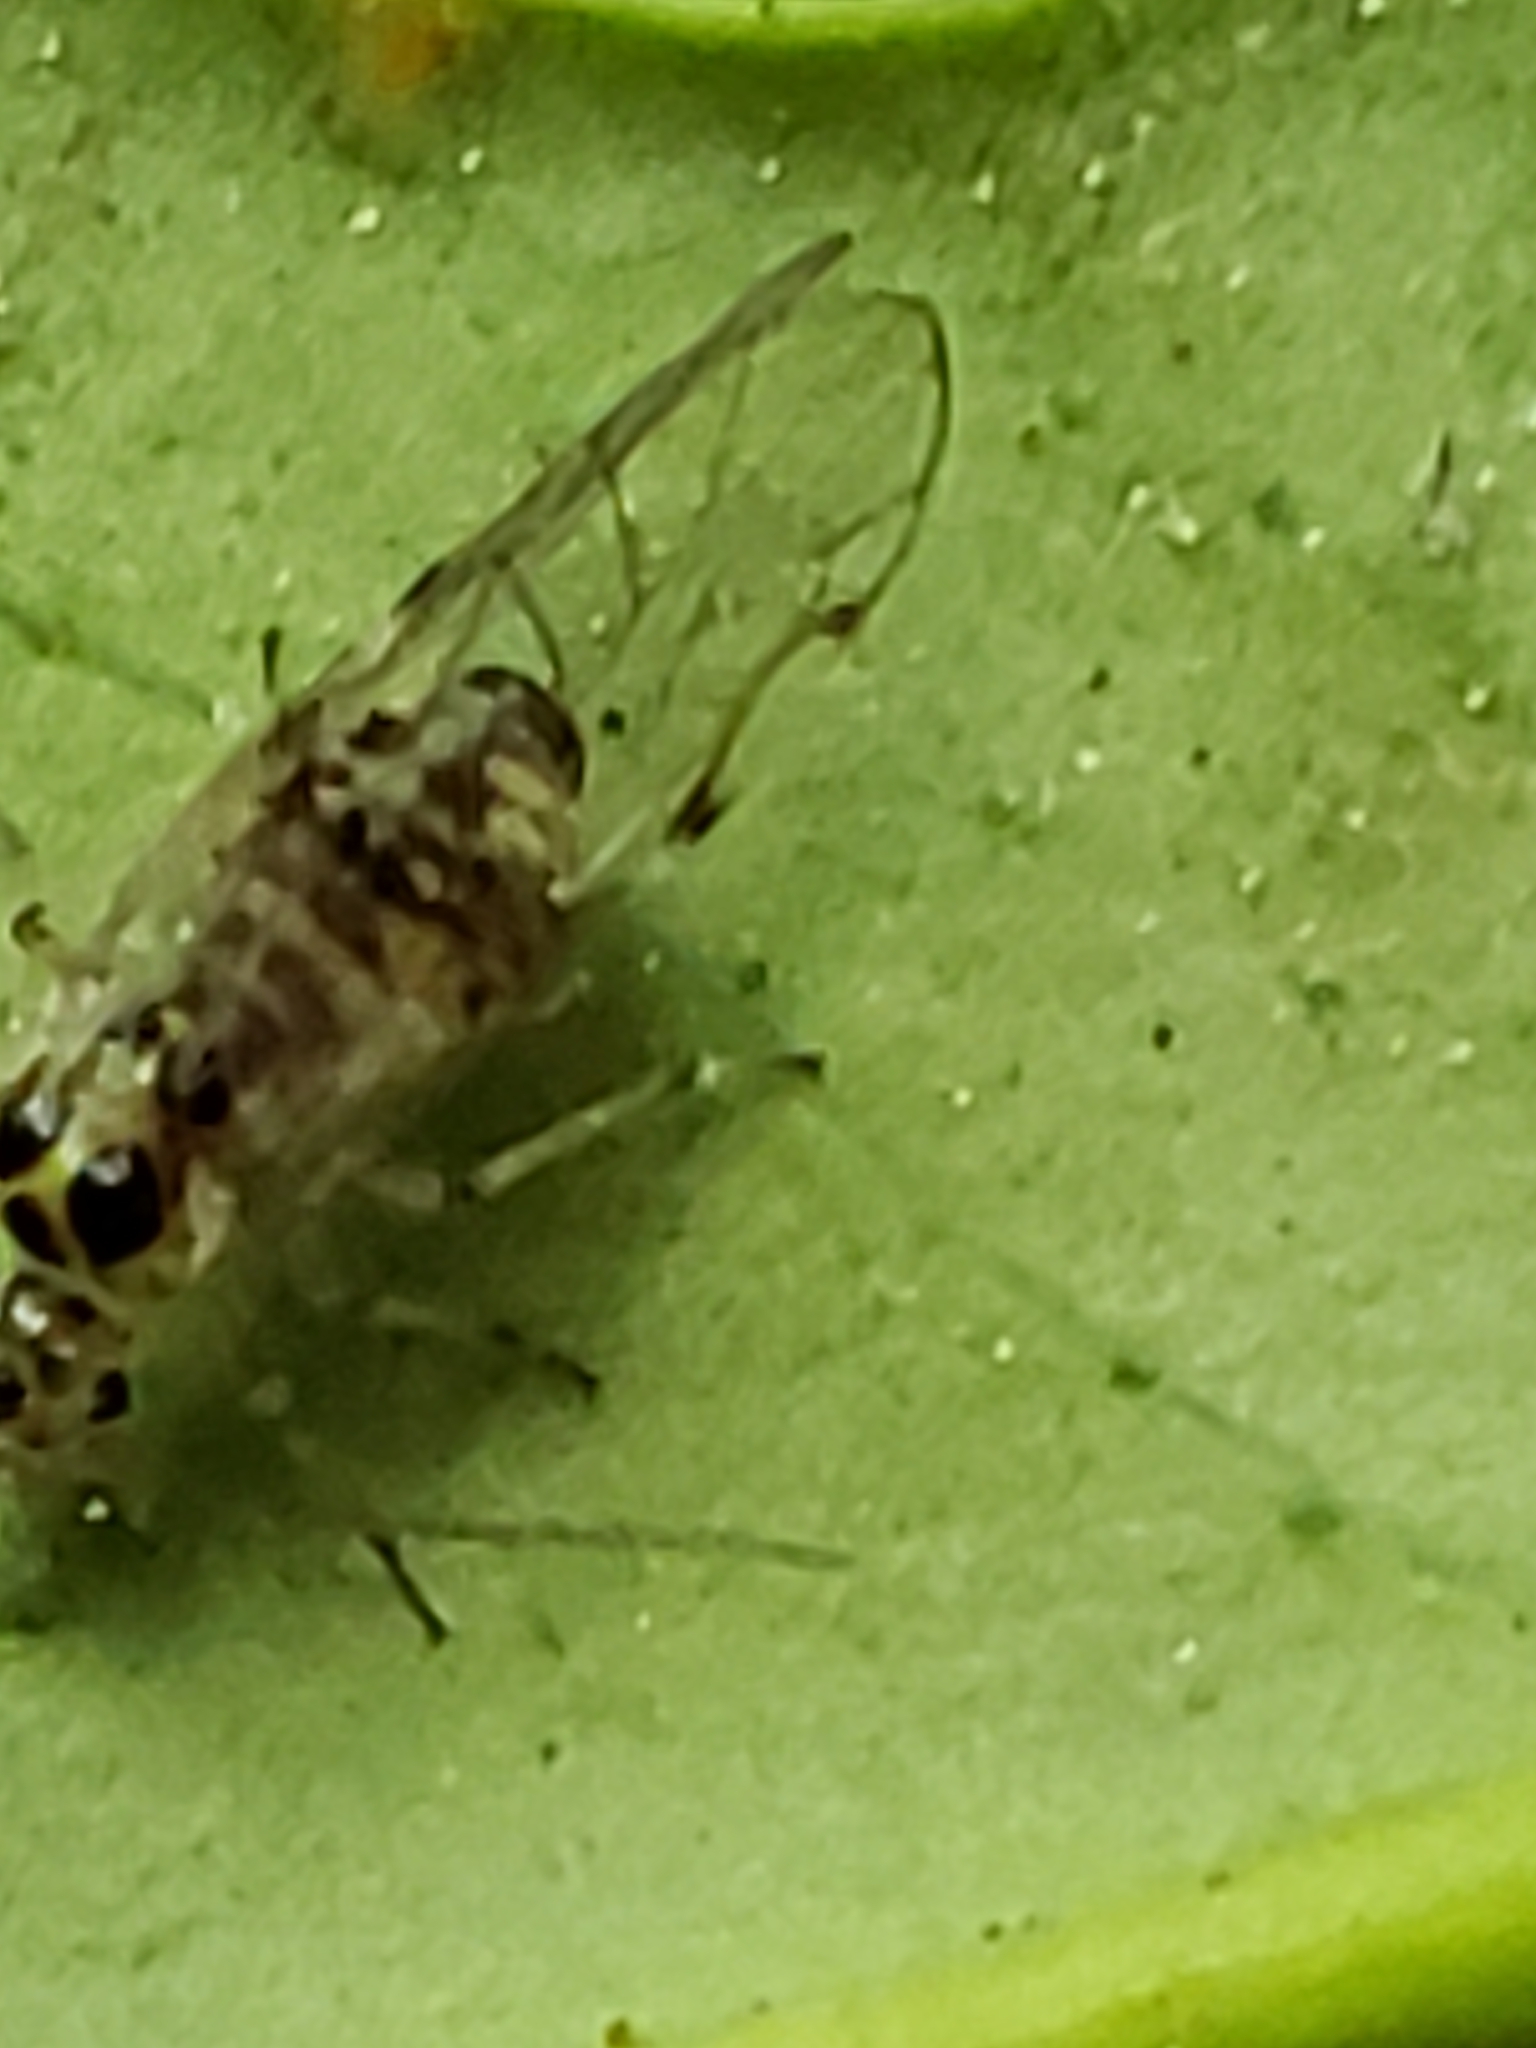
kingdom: Animalia
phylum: Arthropoda
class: Insecta
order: Psocodea
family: Dasydemellidae
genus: Teliapsocus
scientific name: Teliapsocus conterminus
